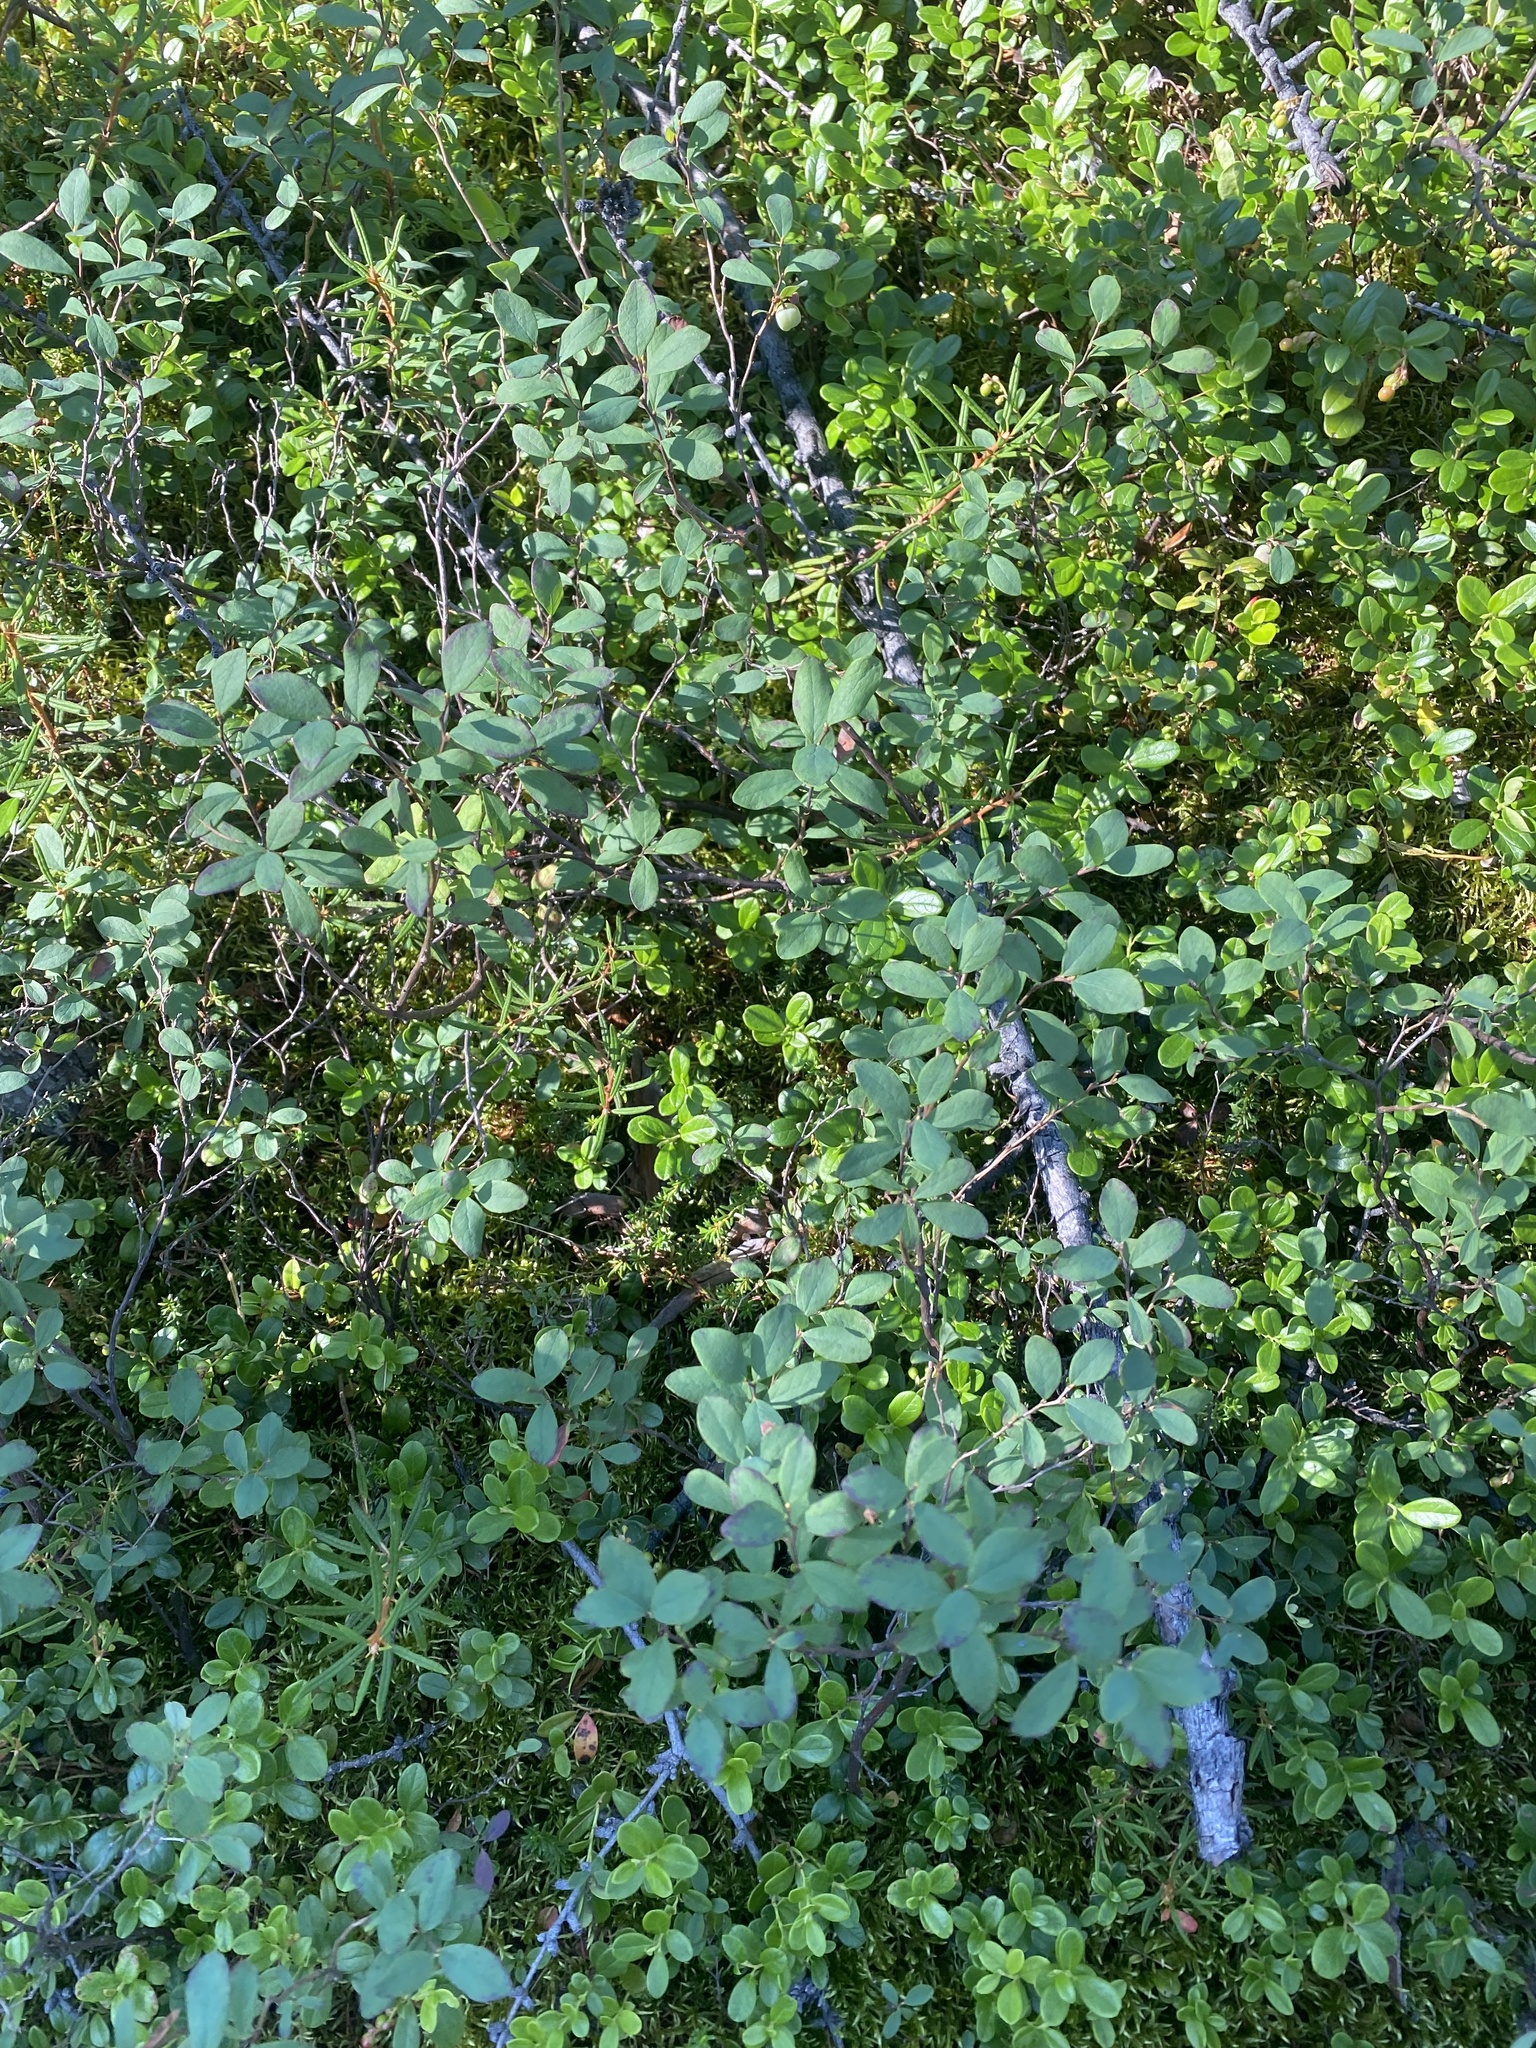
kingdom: Plantae
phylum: Tracheophyta
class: Magnoliopsida
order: Ericales
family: Ericaceae
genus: Vaccinium
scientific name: Vaccinium uliginosum
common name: Bog bilberry
